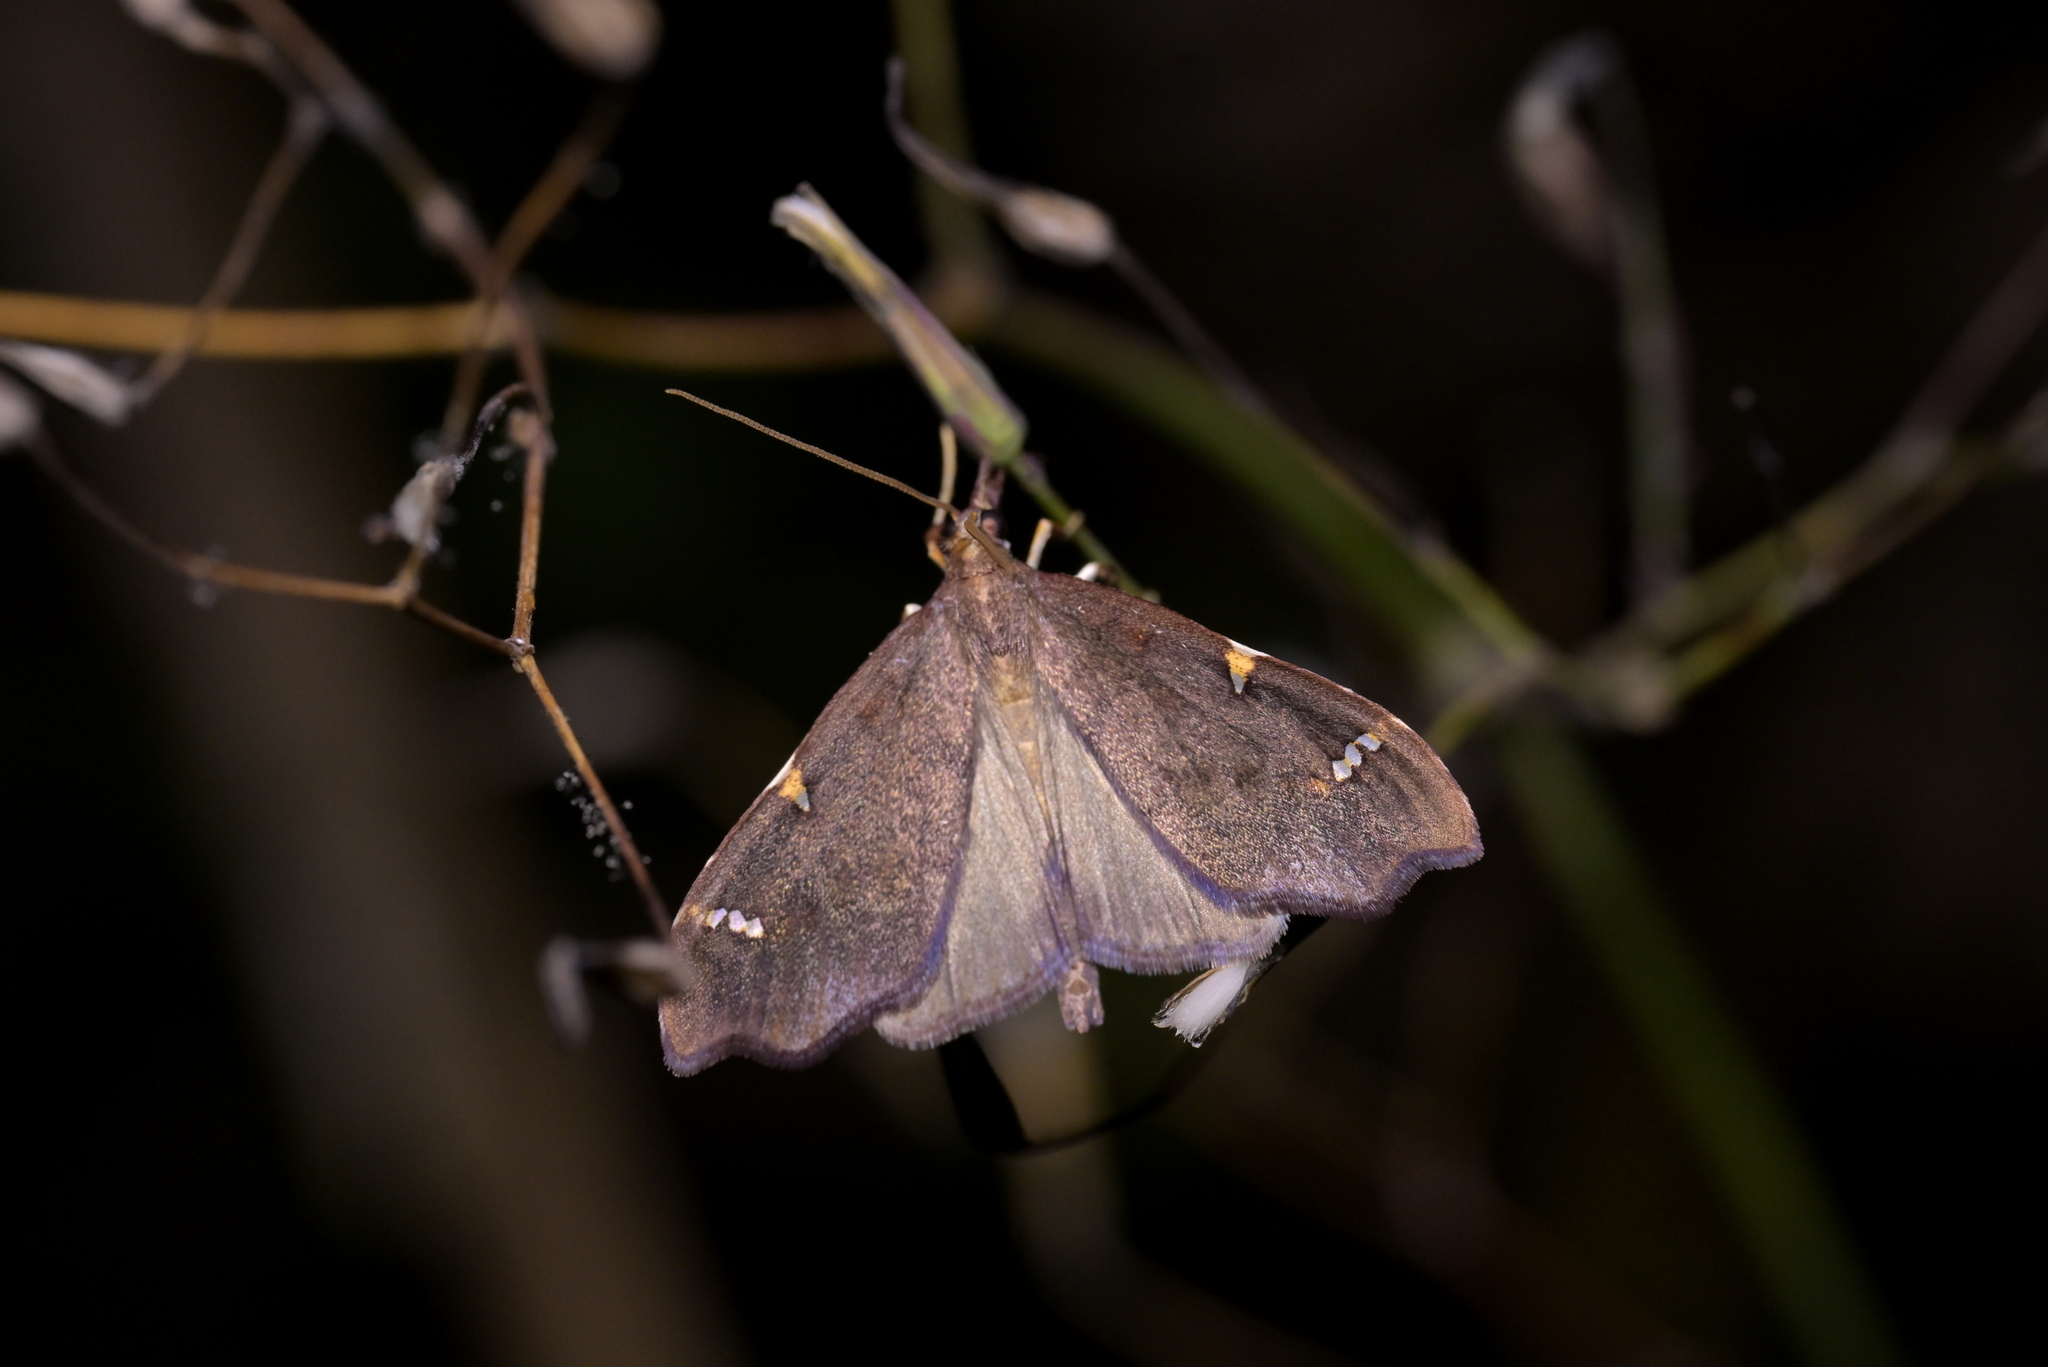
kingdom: Animalia
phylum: Arthropoda
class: Insecta
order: Lepidoptera
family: Crambidae
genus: Deana
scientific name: Deana hybreasalis
